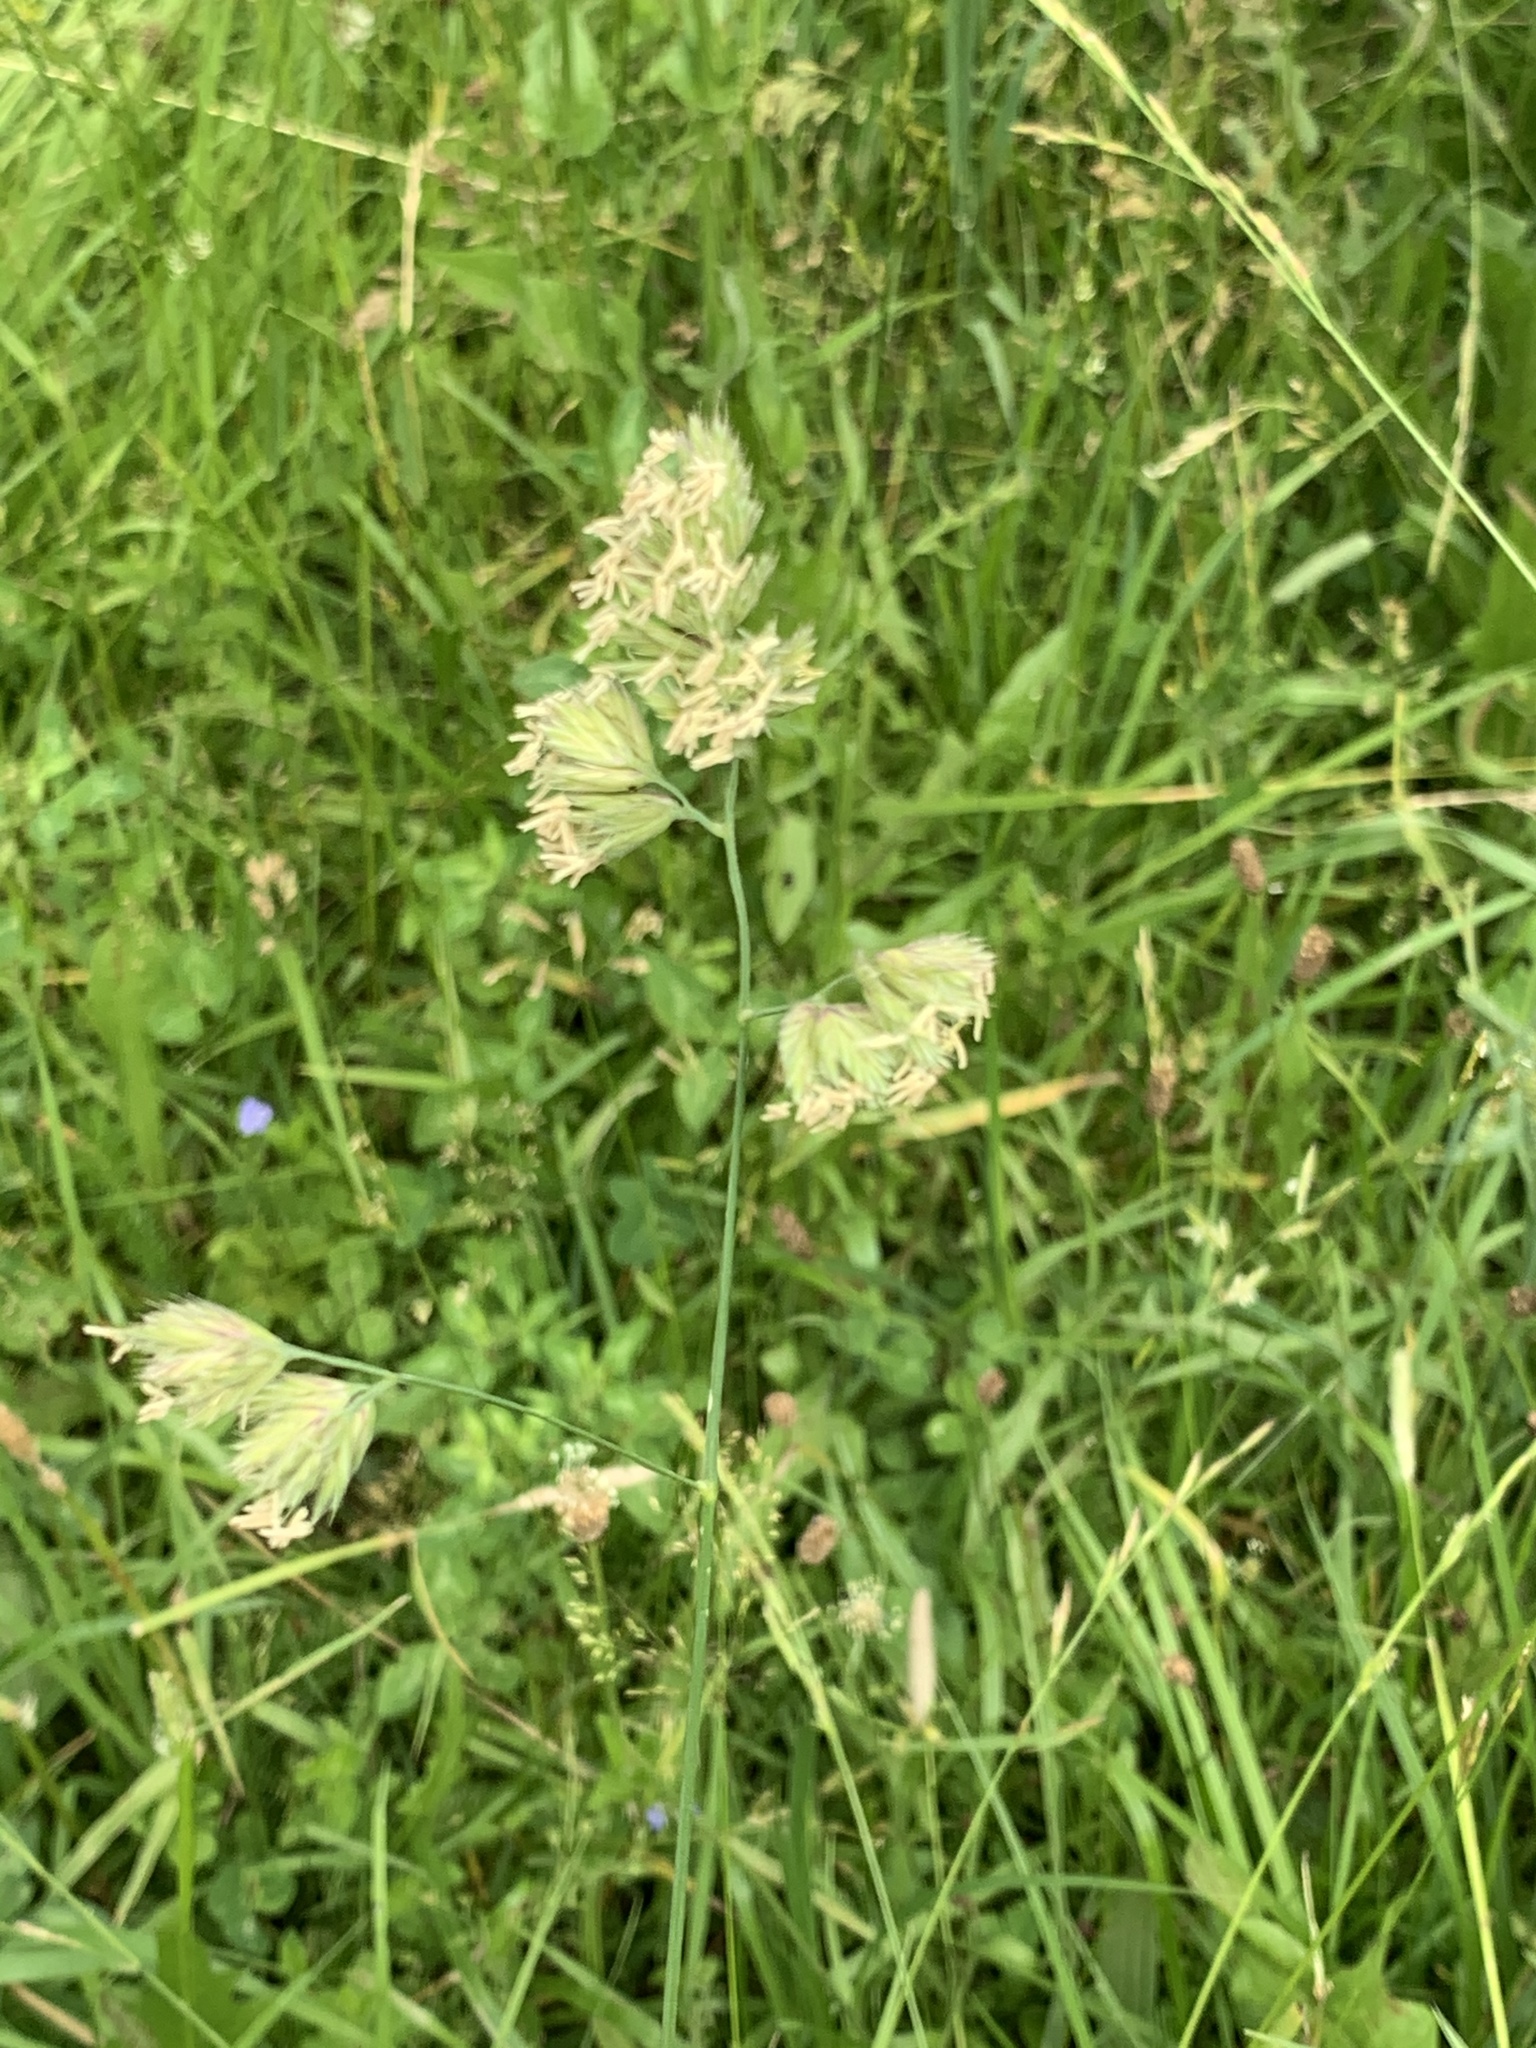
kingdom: Plantae
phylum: Tracheophyta
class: Liliopsida
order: Poales
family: Poaceae
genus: Dactylis
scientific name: Dactylis glomerata
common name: Orchardgrass
